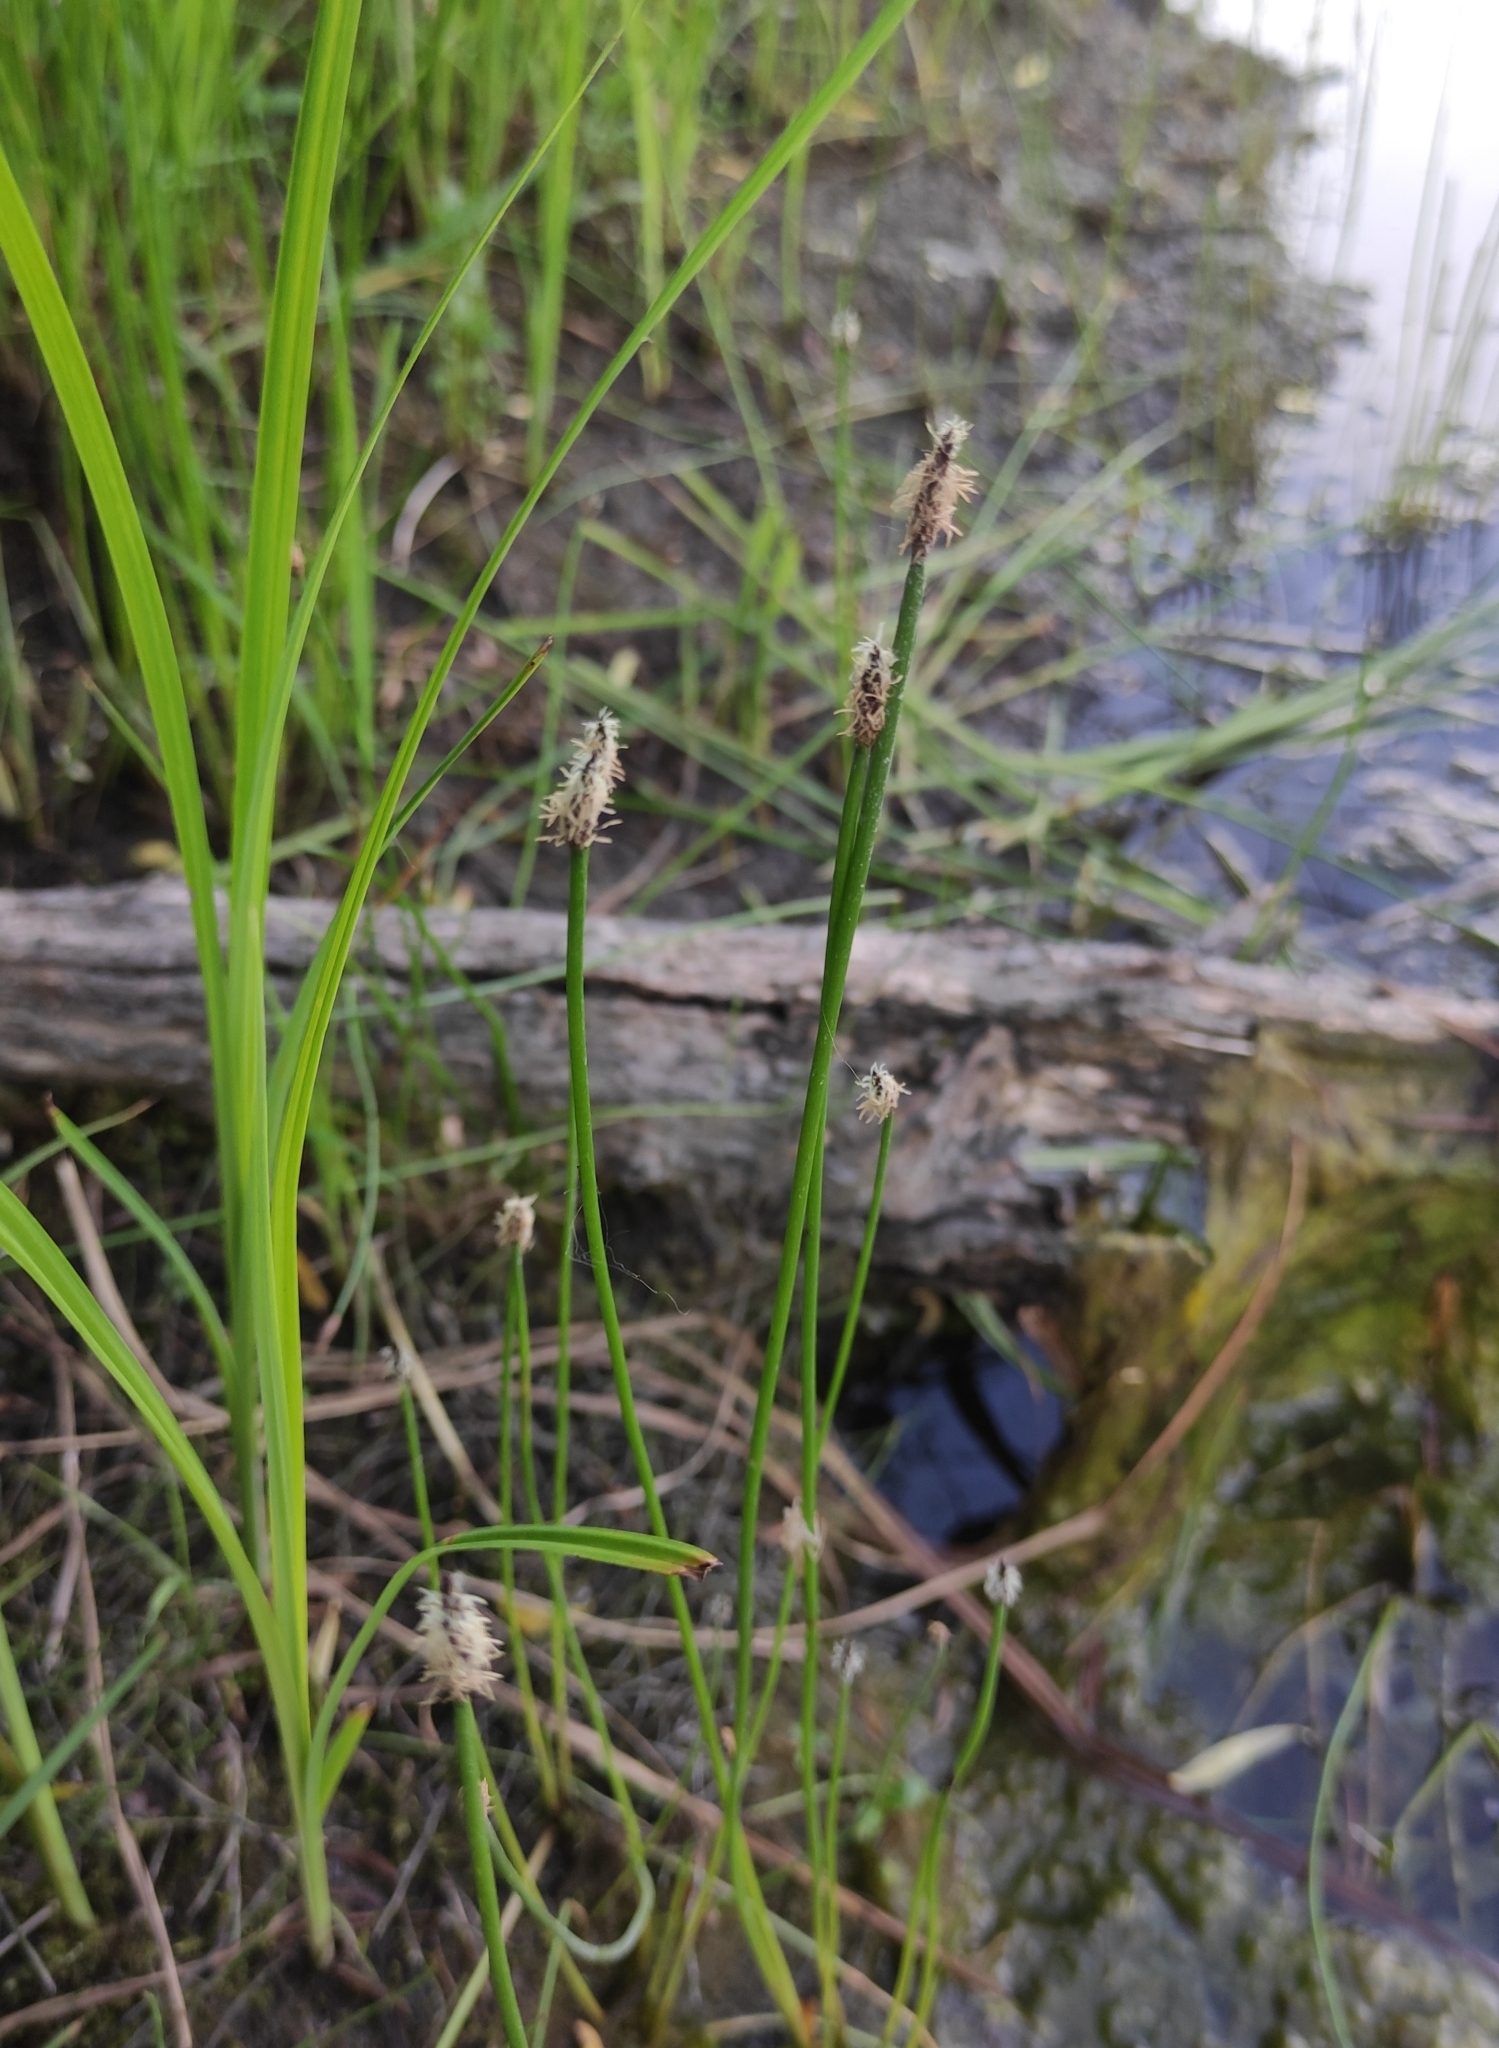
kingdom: Plantae
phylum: Tracheophyta
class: Liliopsida
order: Poales
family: Cyperaceae
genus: Eleocharis
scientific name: Eleocharis palustris
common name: Common spike-rush
